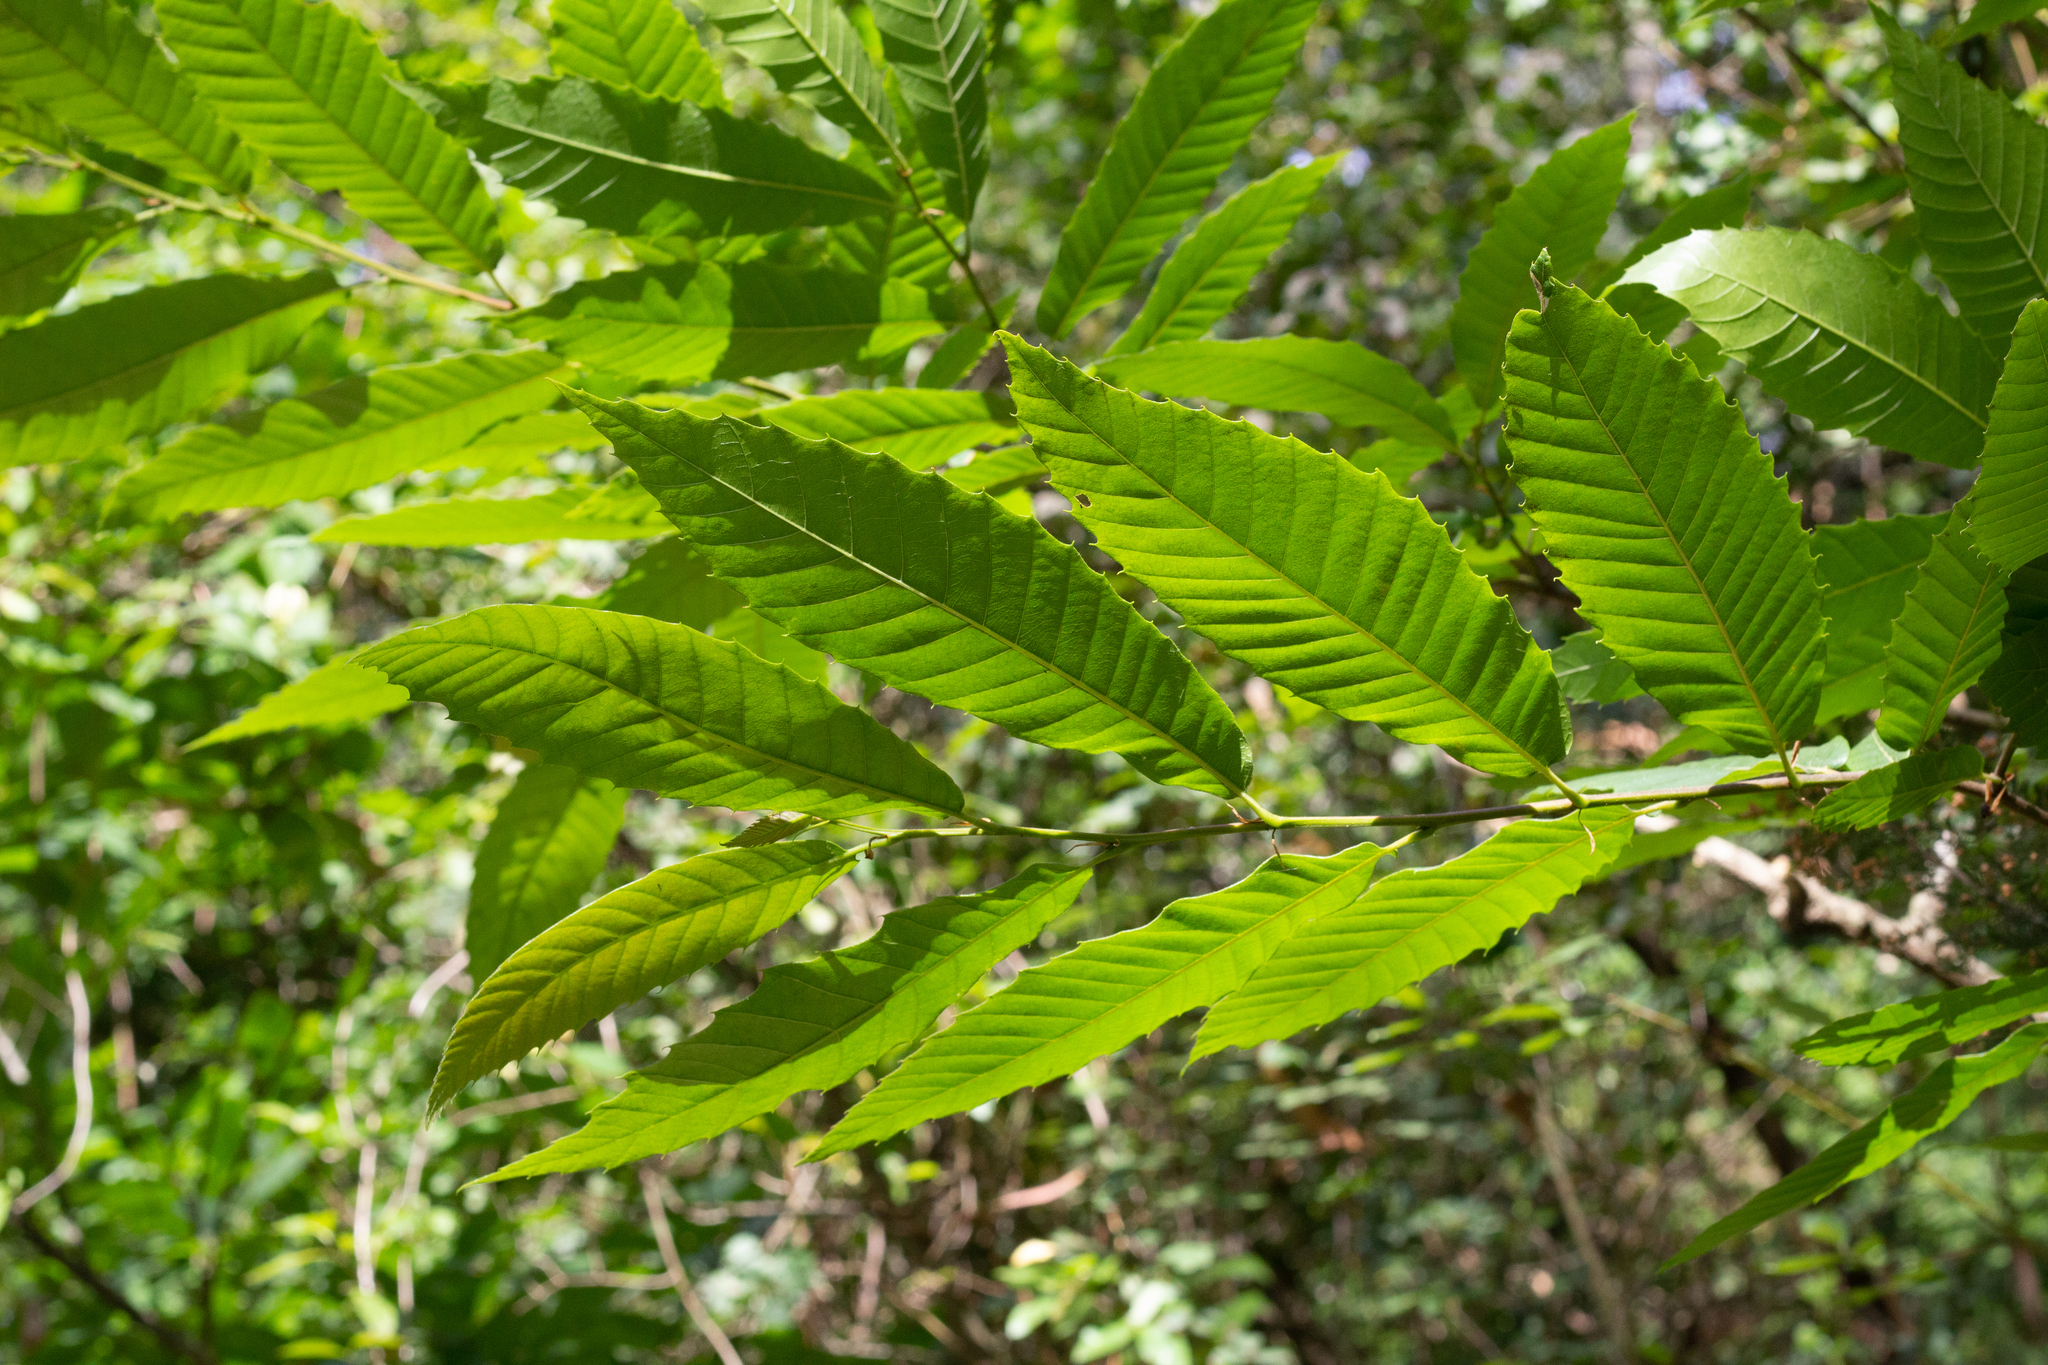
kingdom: Plantae
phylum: Tracheophyta
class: Magnoliopsida
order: Fagales
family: Fagaceae
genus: Castanea
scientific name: Castanea sativa
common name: Sweet chestnut
